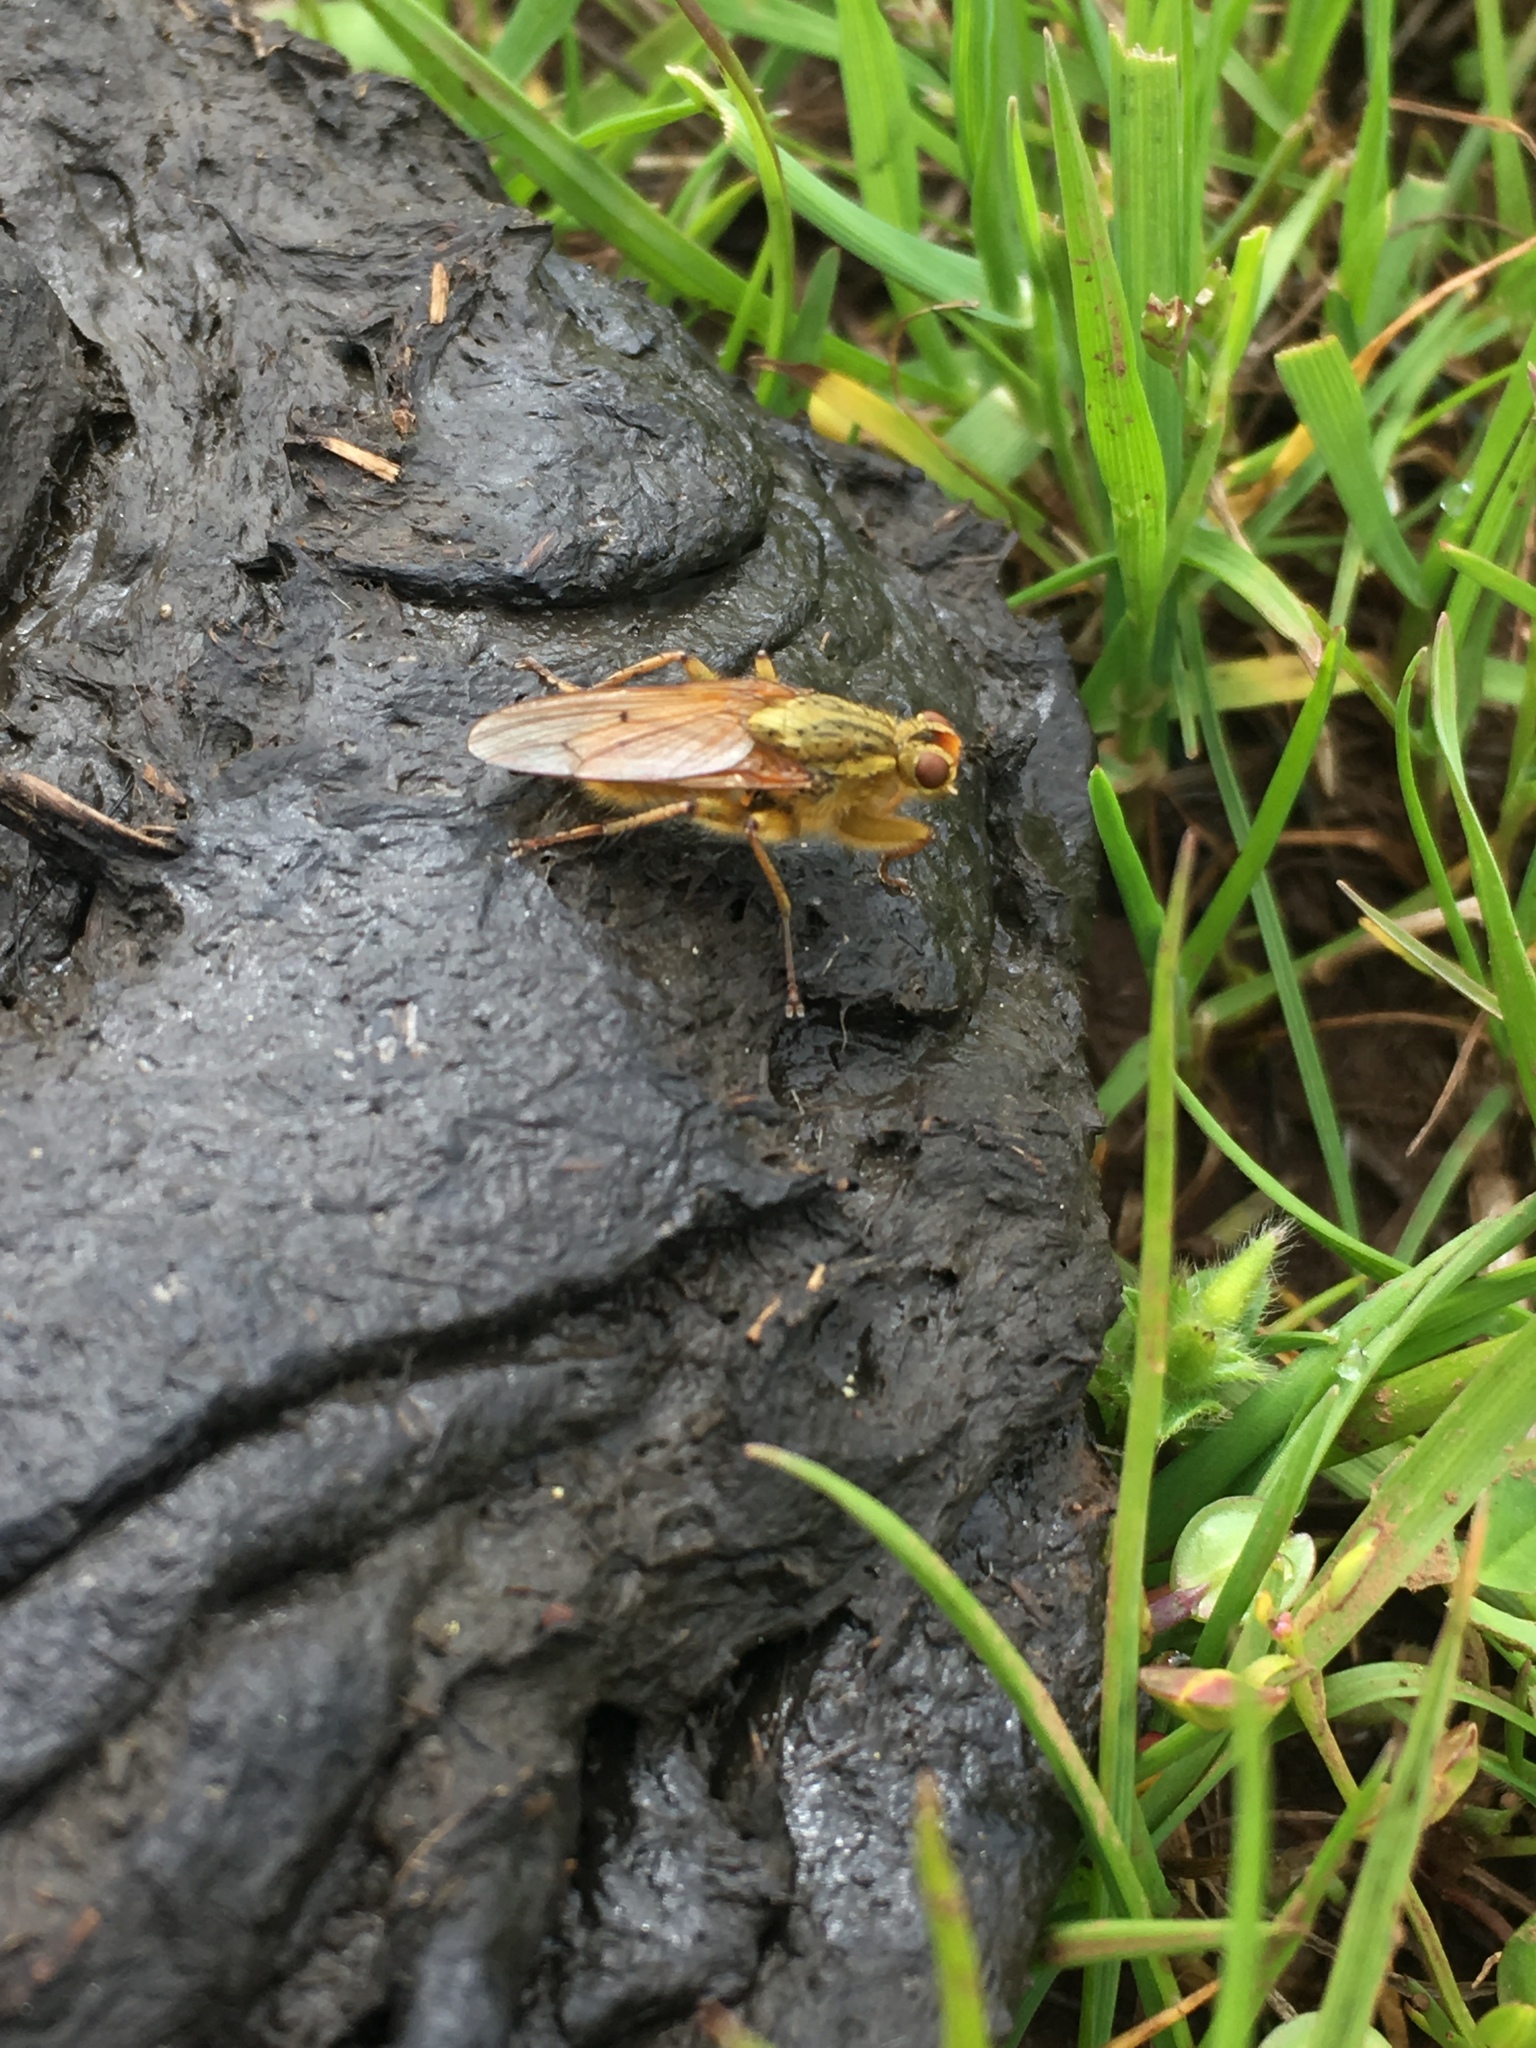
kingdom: Animalia
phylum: Arthropoda
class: Insecta
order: Diptera
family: Scathophagidae
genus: Scathophaga
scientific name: Scathophaga stercoraria
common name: Yellow dung fly
